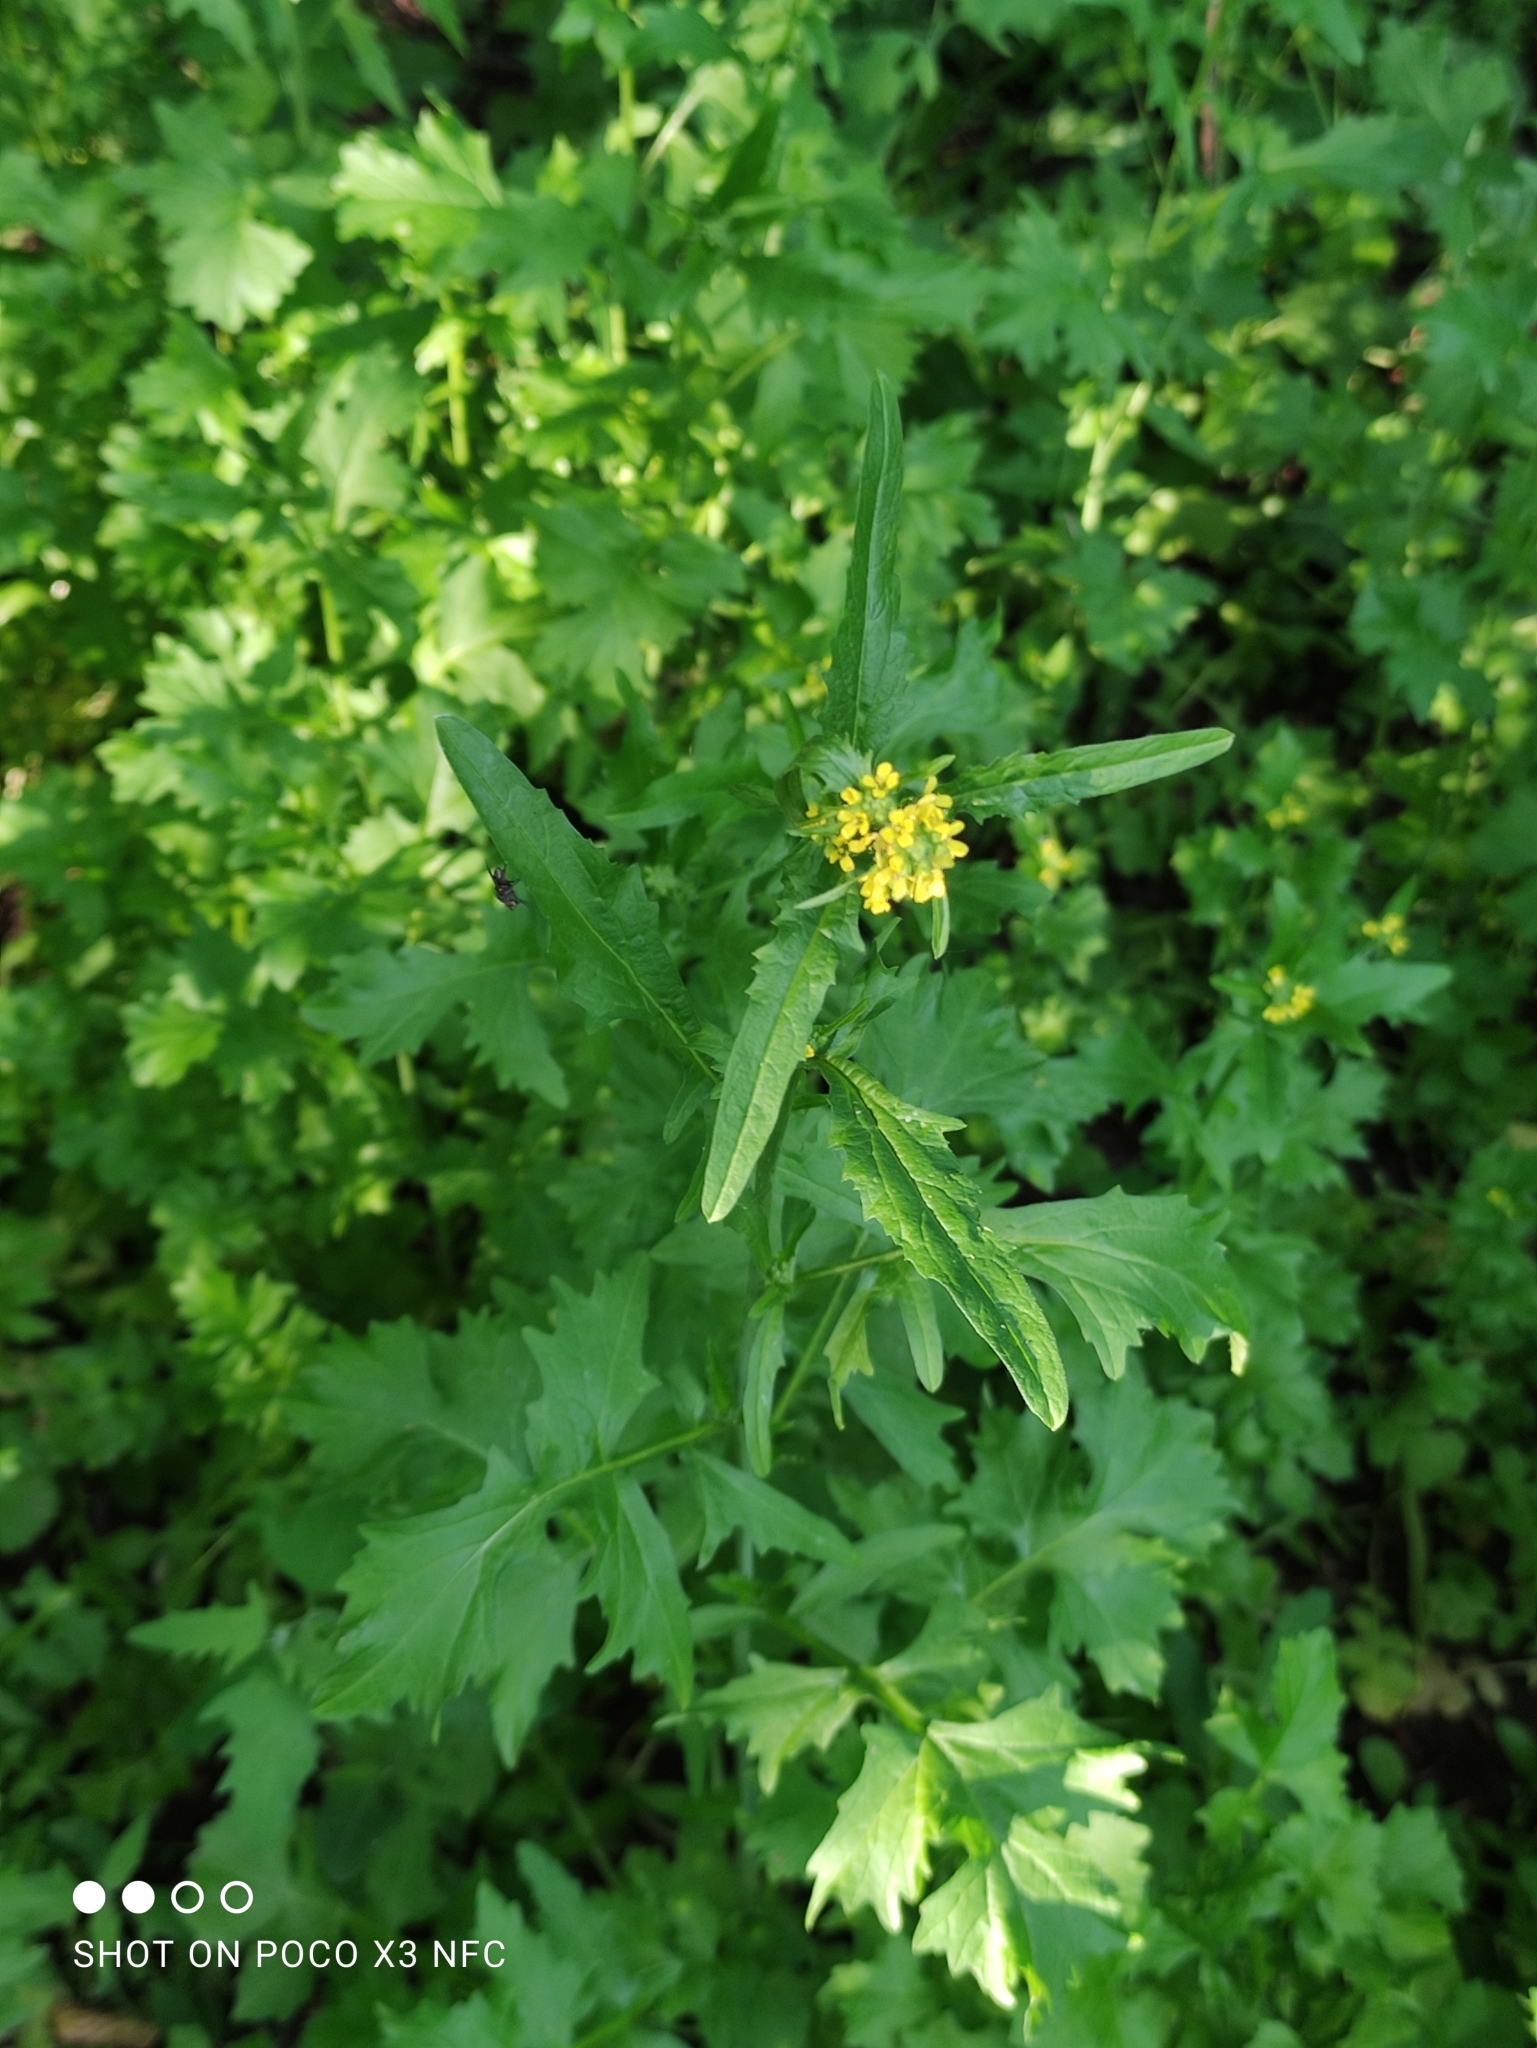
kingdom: Plantae
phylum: Tracheophyta
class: Magnoliopsida
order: Brassicales
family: Brassicaceae
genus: Sisymbrium
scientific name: Sisymbrium officinale
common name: Hedge mustard
